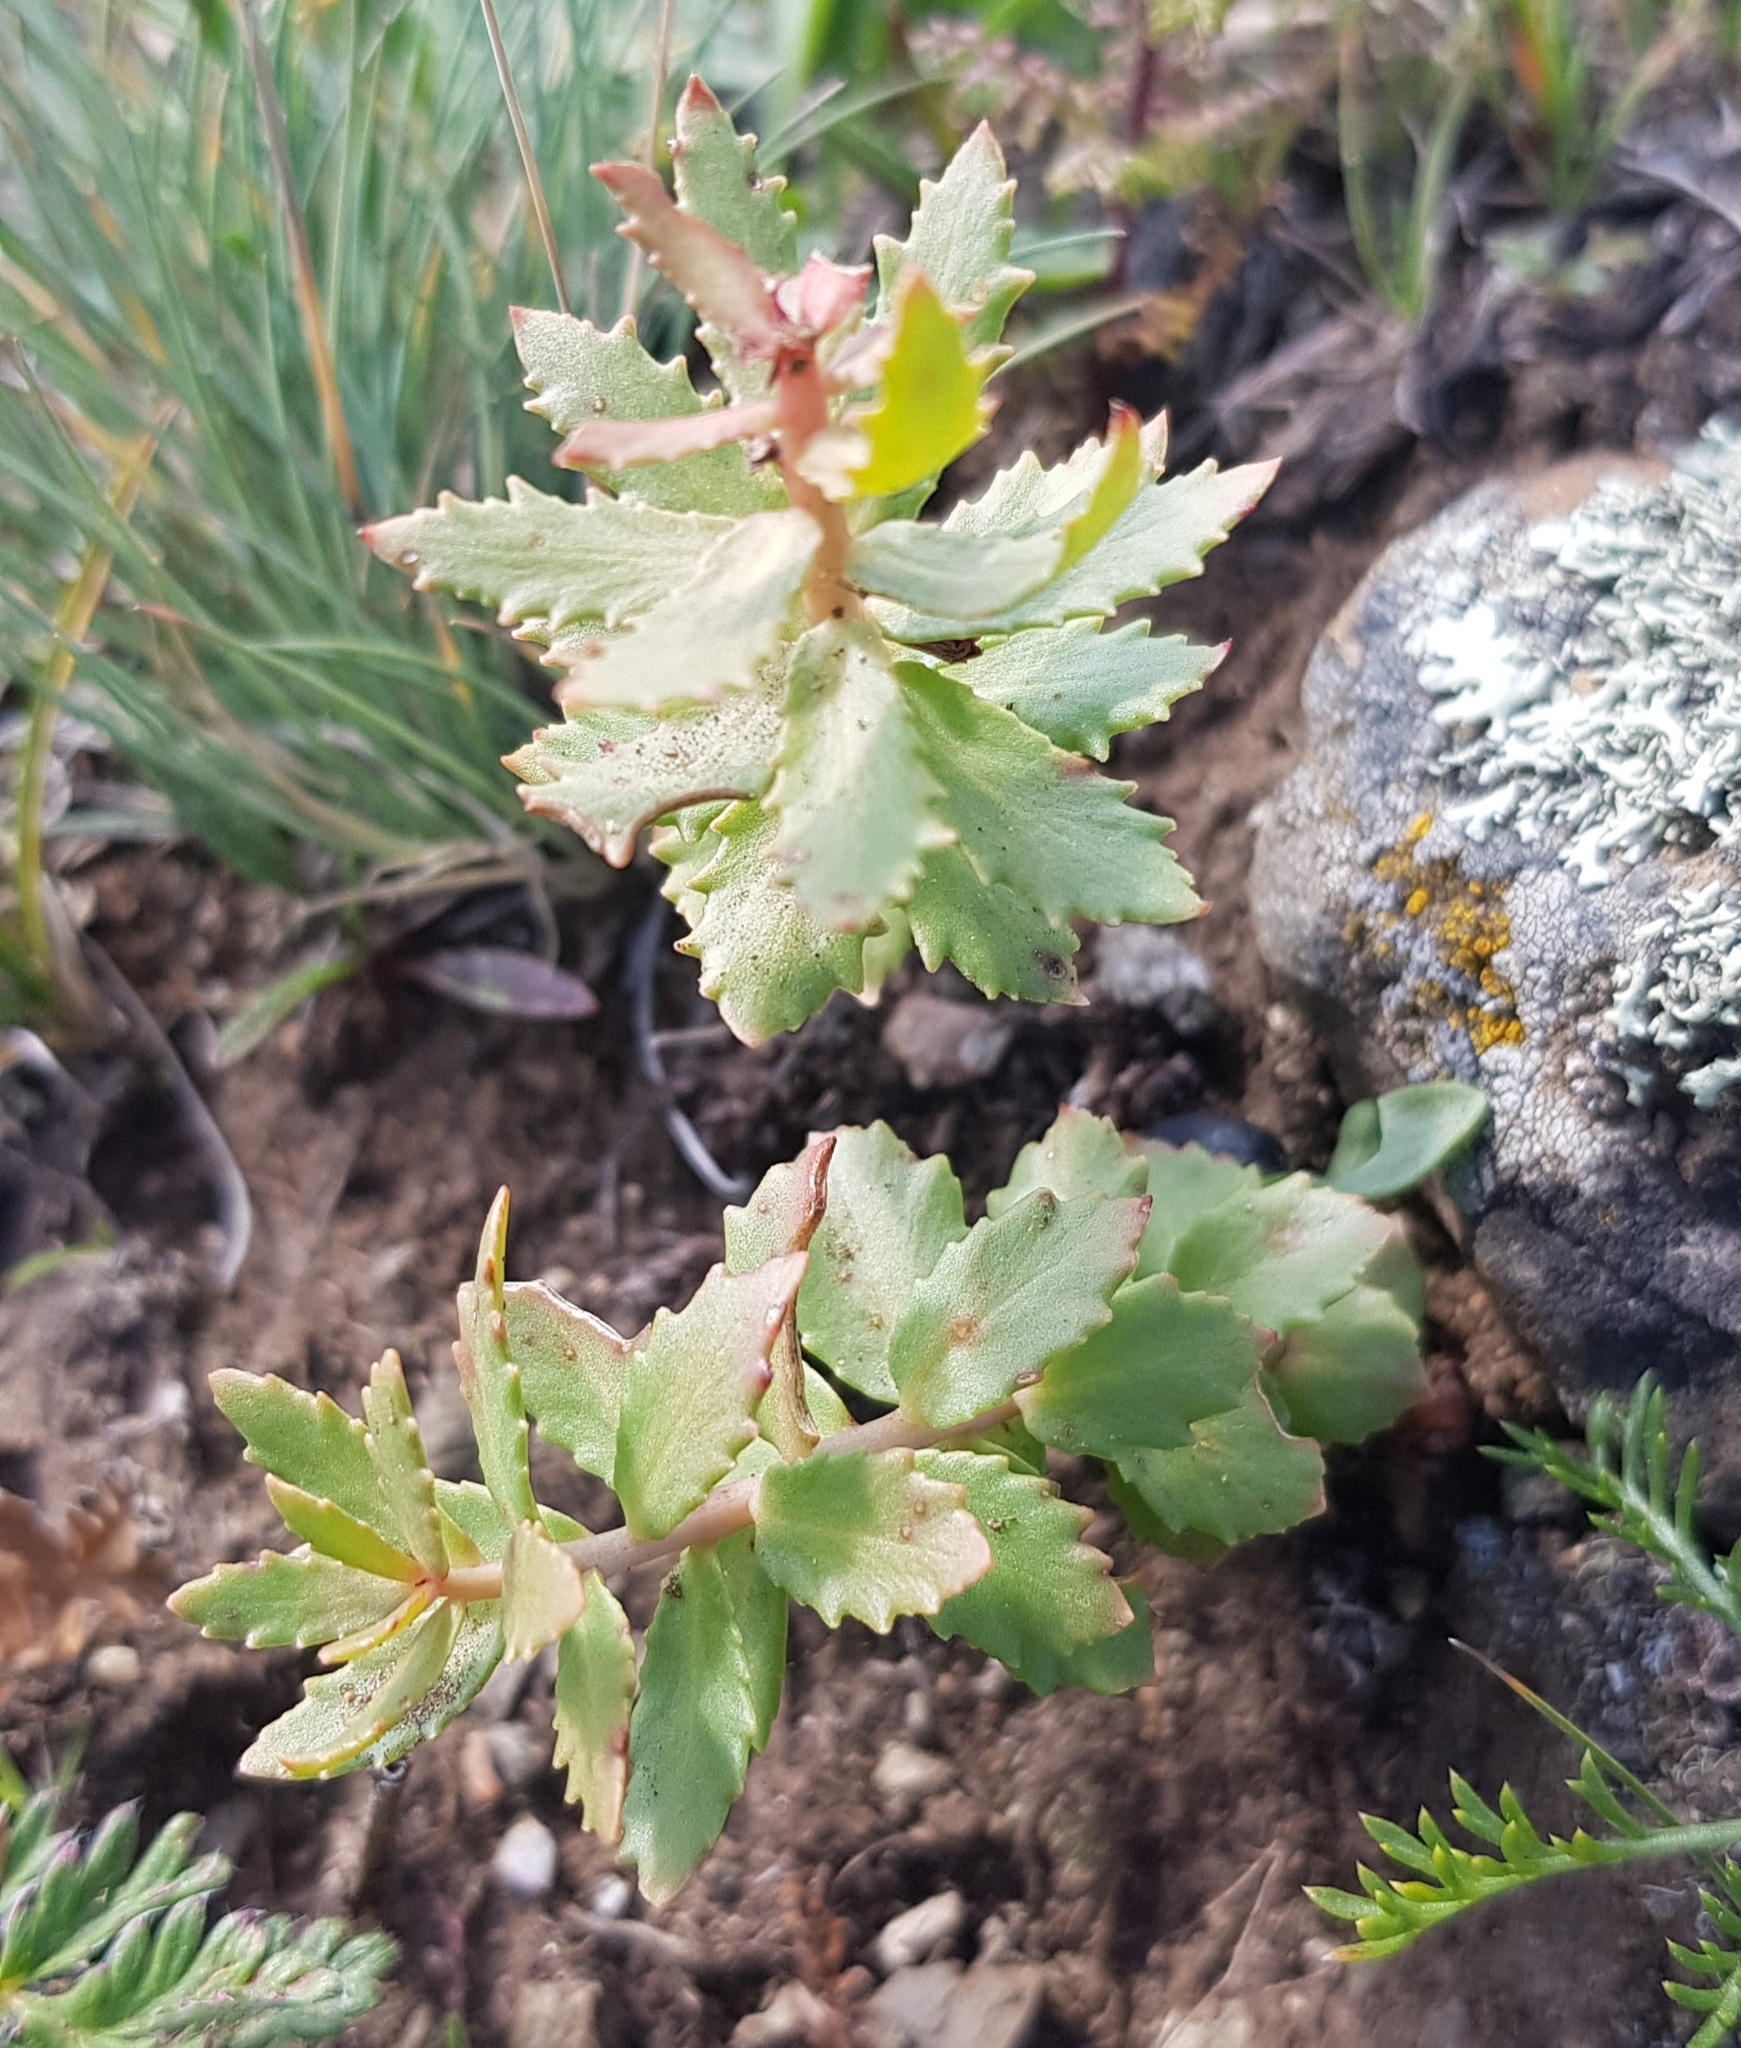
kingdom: Plantae
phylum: Tracheophyta
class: Magnoliopsida
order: Saxifragales
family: Crassulaceae
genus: Rhodiola
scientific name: Rhodiola rosea
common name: Roseroot
